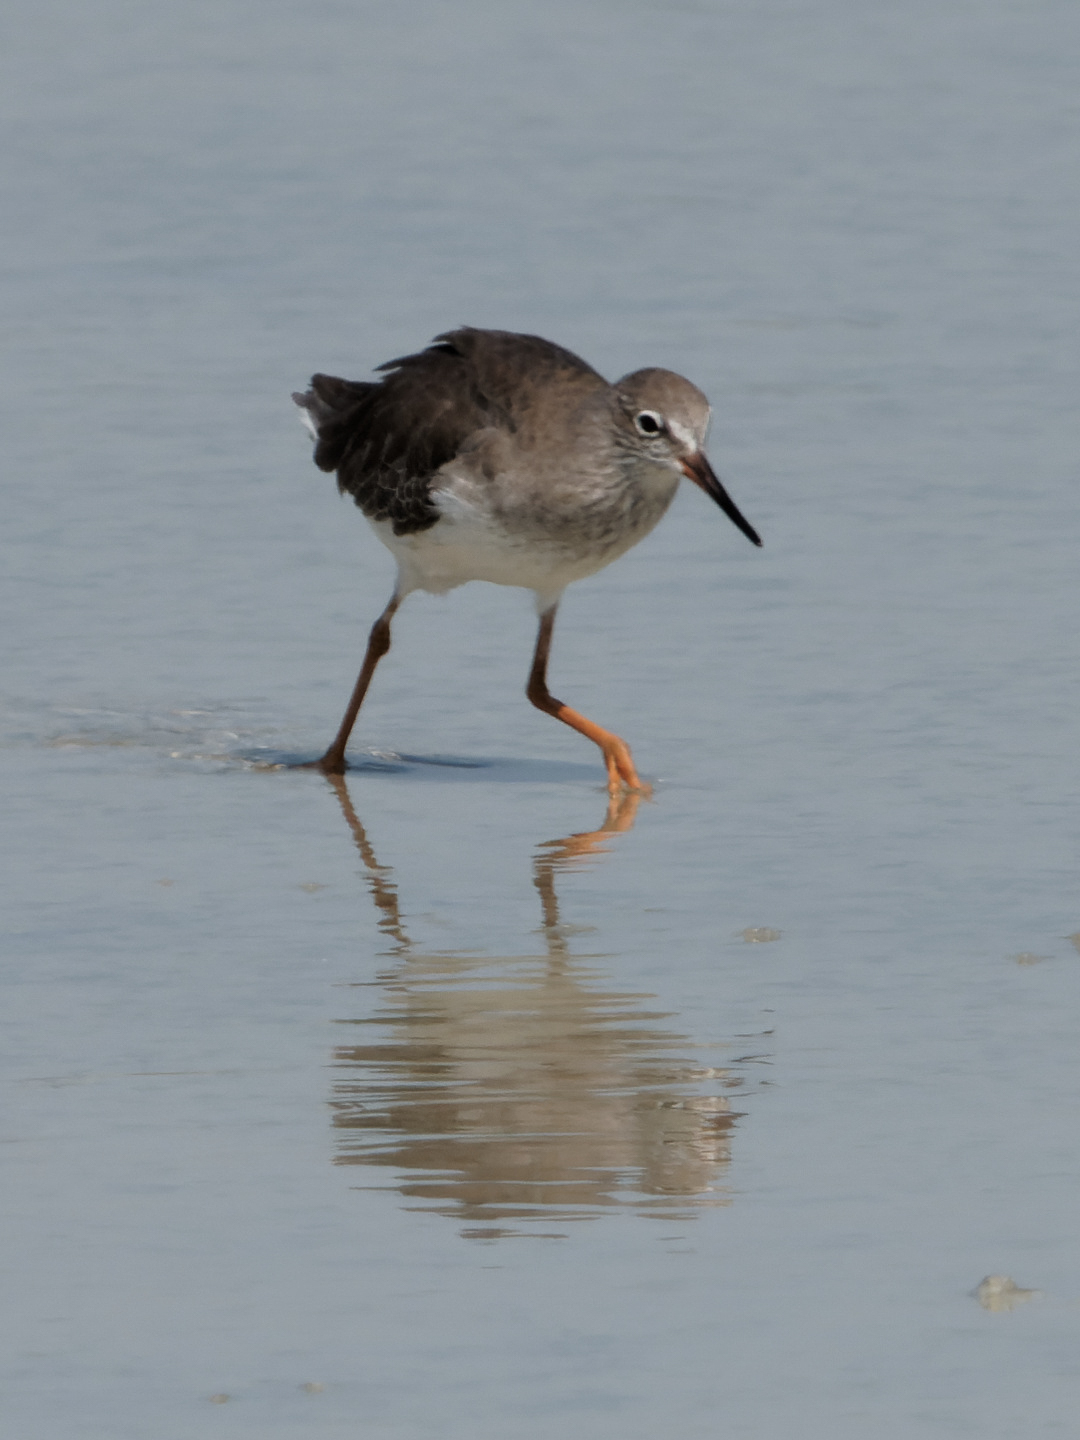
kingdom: Animalia
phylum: Chordata
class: Aves
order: Charadriiformes
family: Scolopacidae
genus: Tringa
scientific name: Tringa totanus
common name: Common redshank
